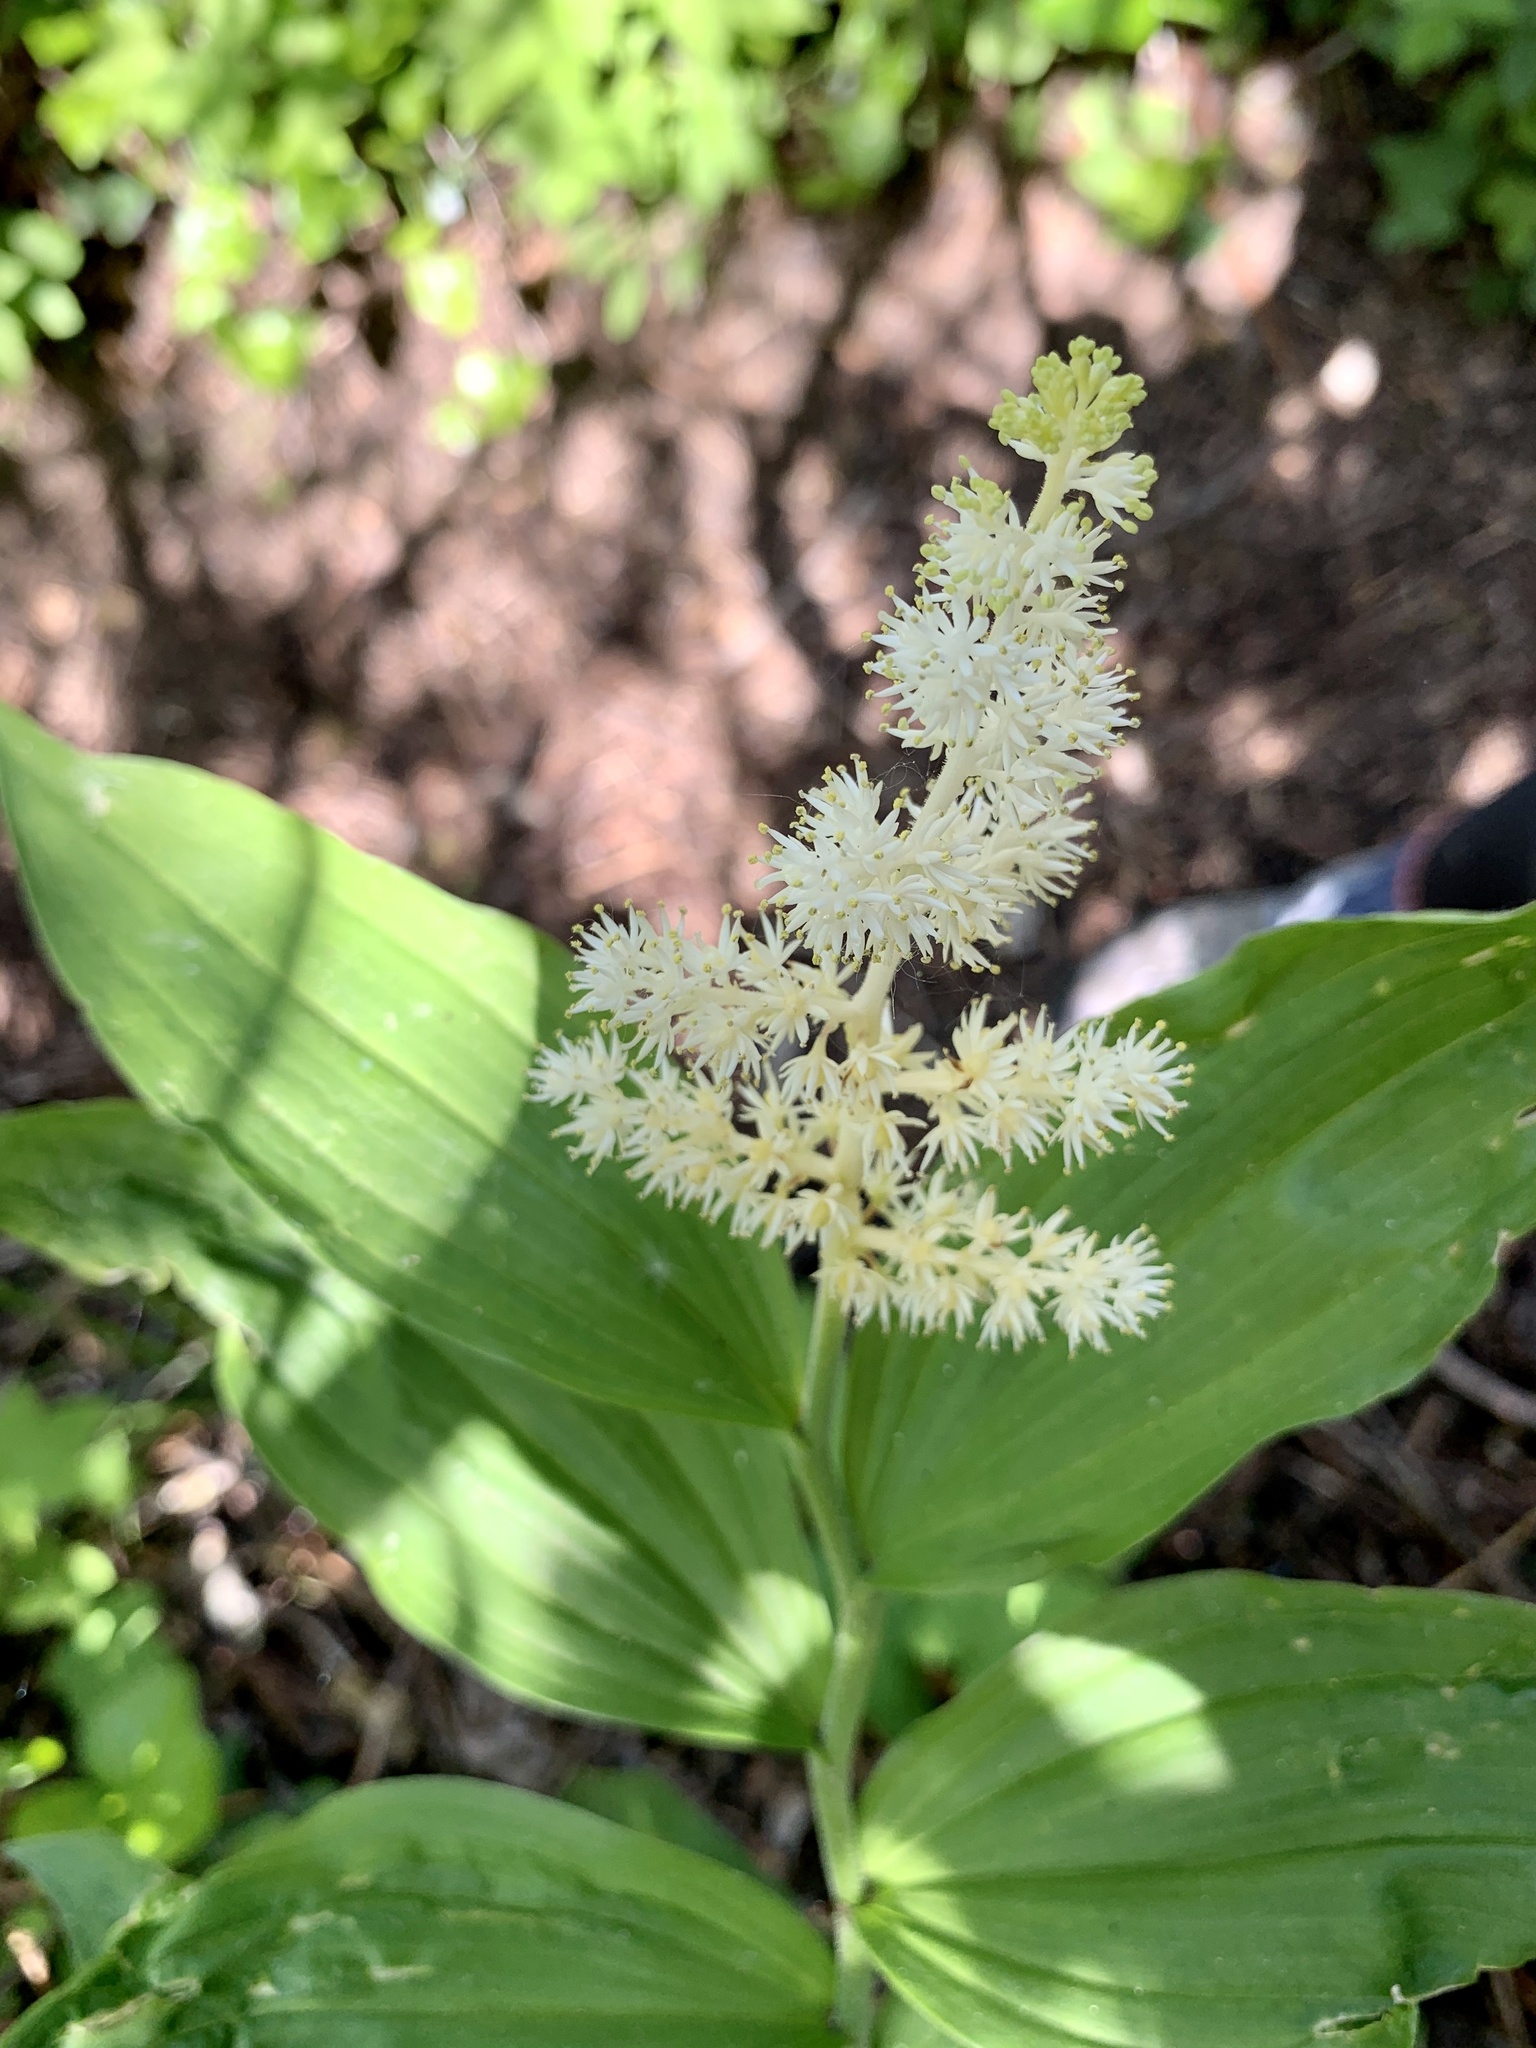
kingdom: Plantae
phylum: Tracheophyta
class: Liliopsida
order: Asparagales
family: Asparagaceae
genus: Maianthemum
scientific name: Maianthemum racemosum
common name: False spikenard
